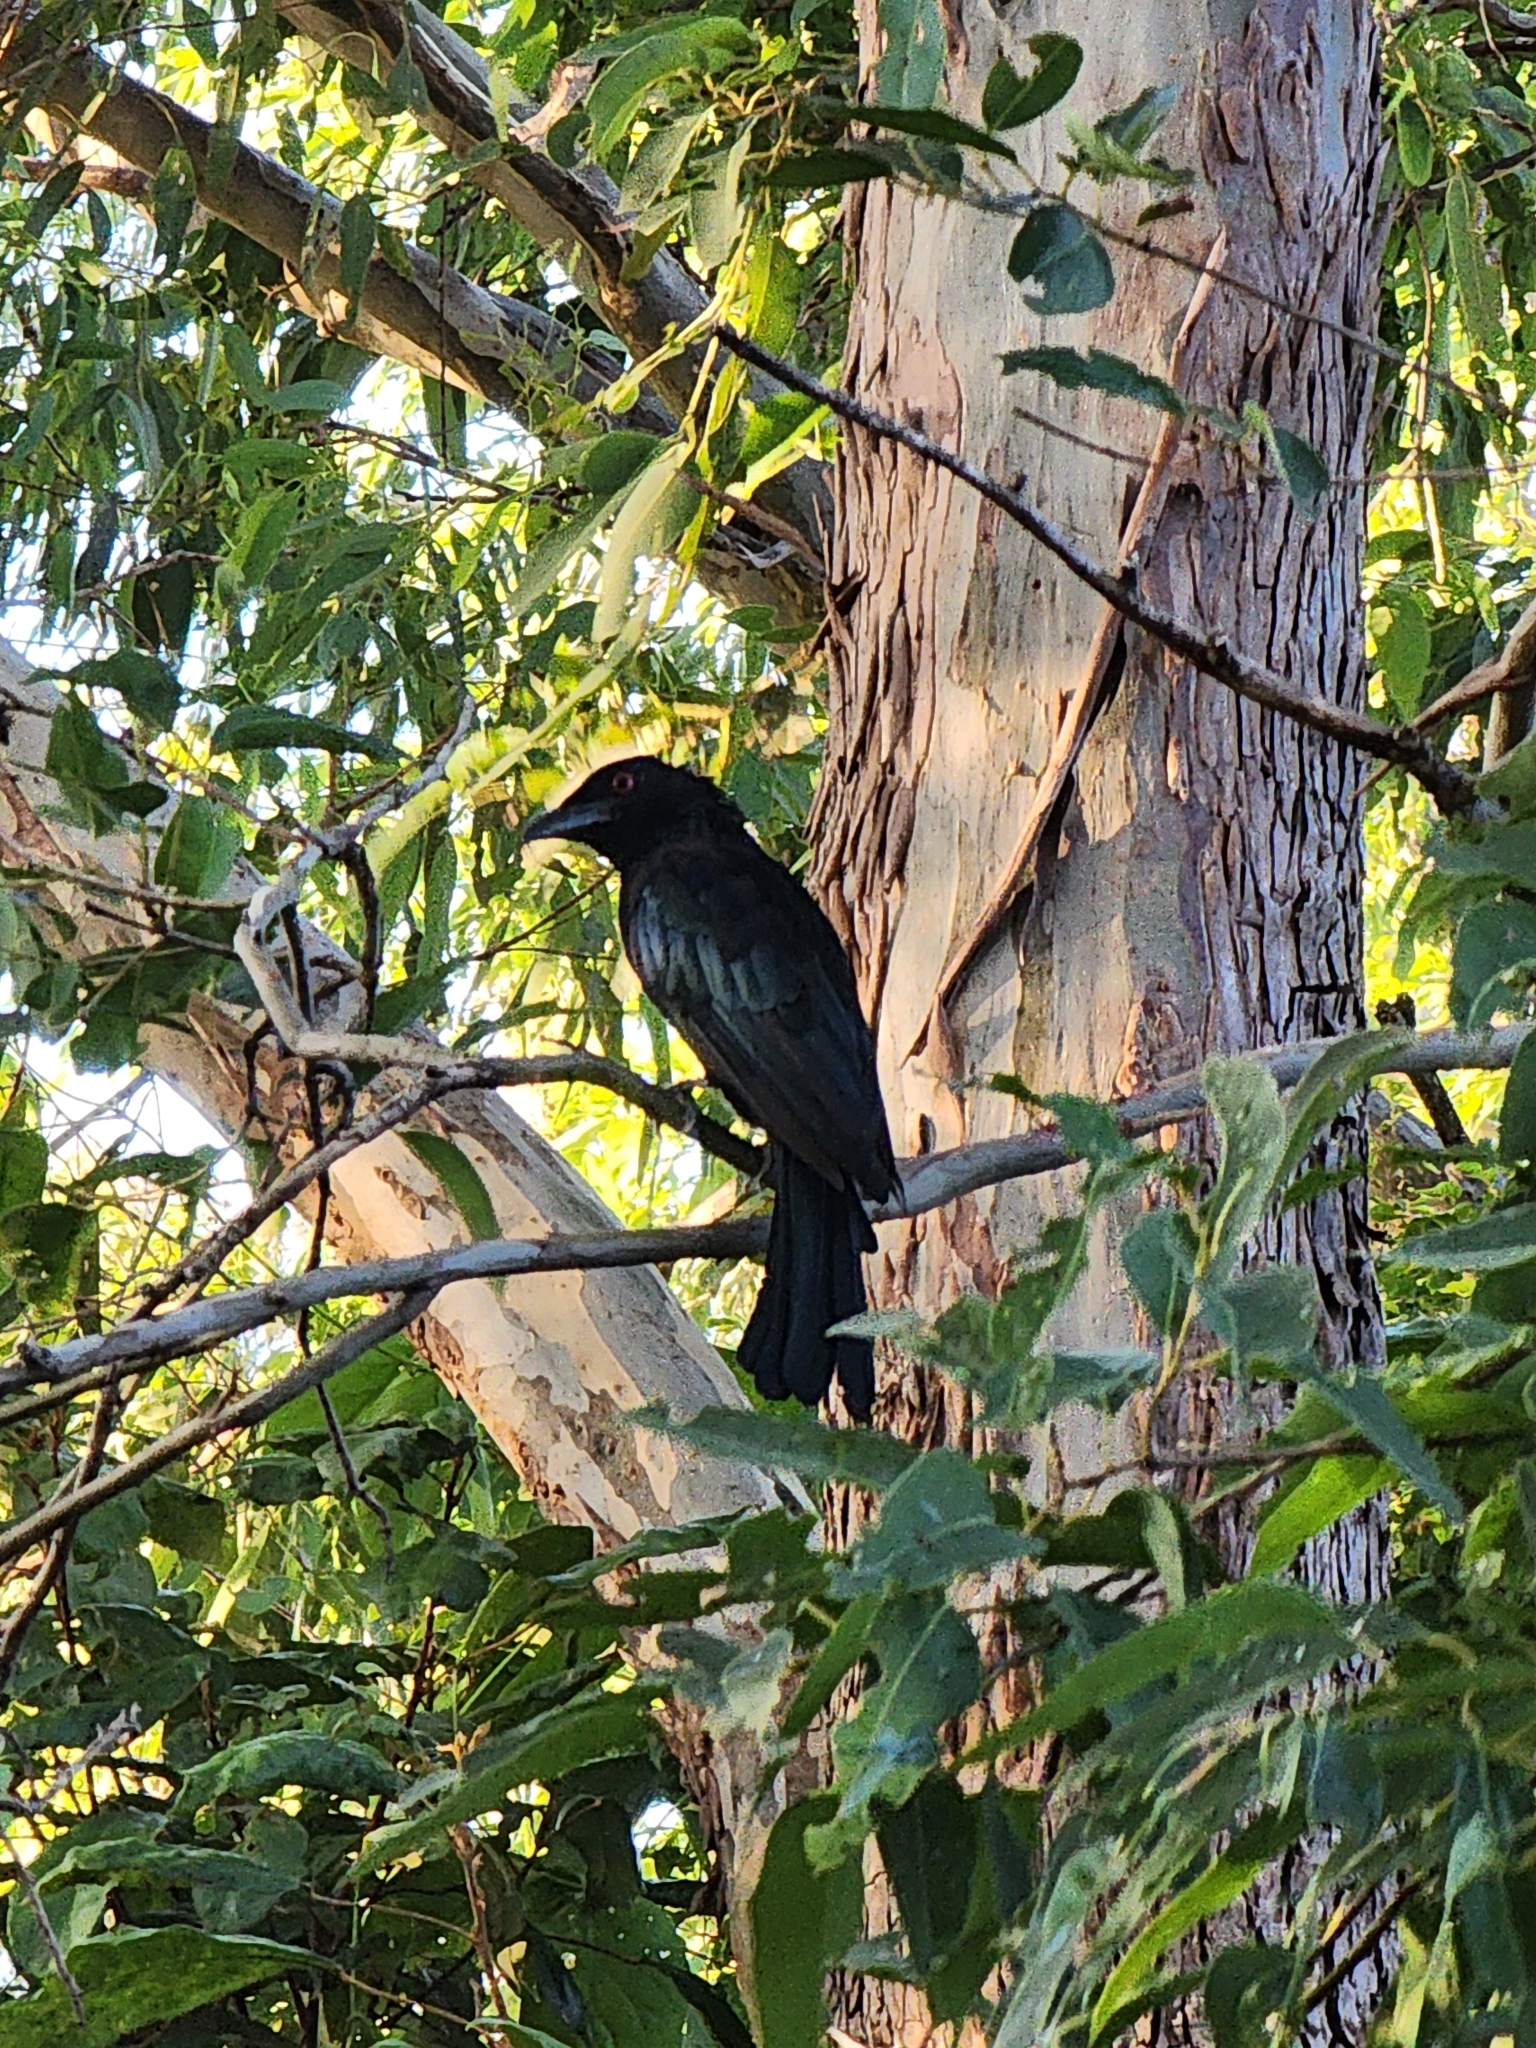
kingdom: Animalia
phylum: Chordata
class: Aves
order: Passeriformes
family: Dicruridae
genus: Dicrurus
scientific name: Dicrurus bracteatus
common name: Spangled drongo
